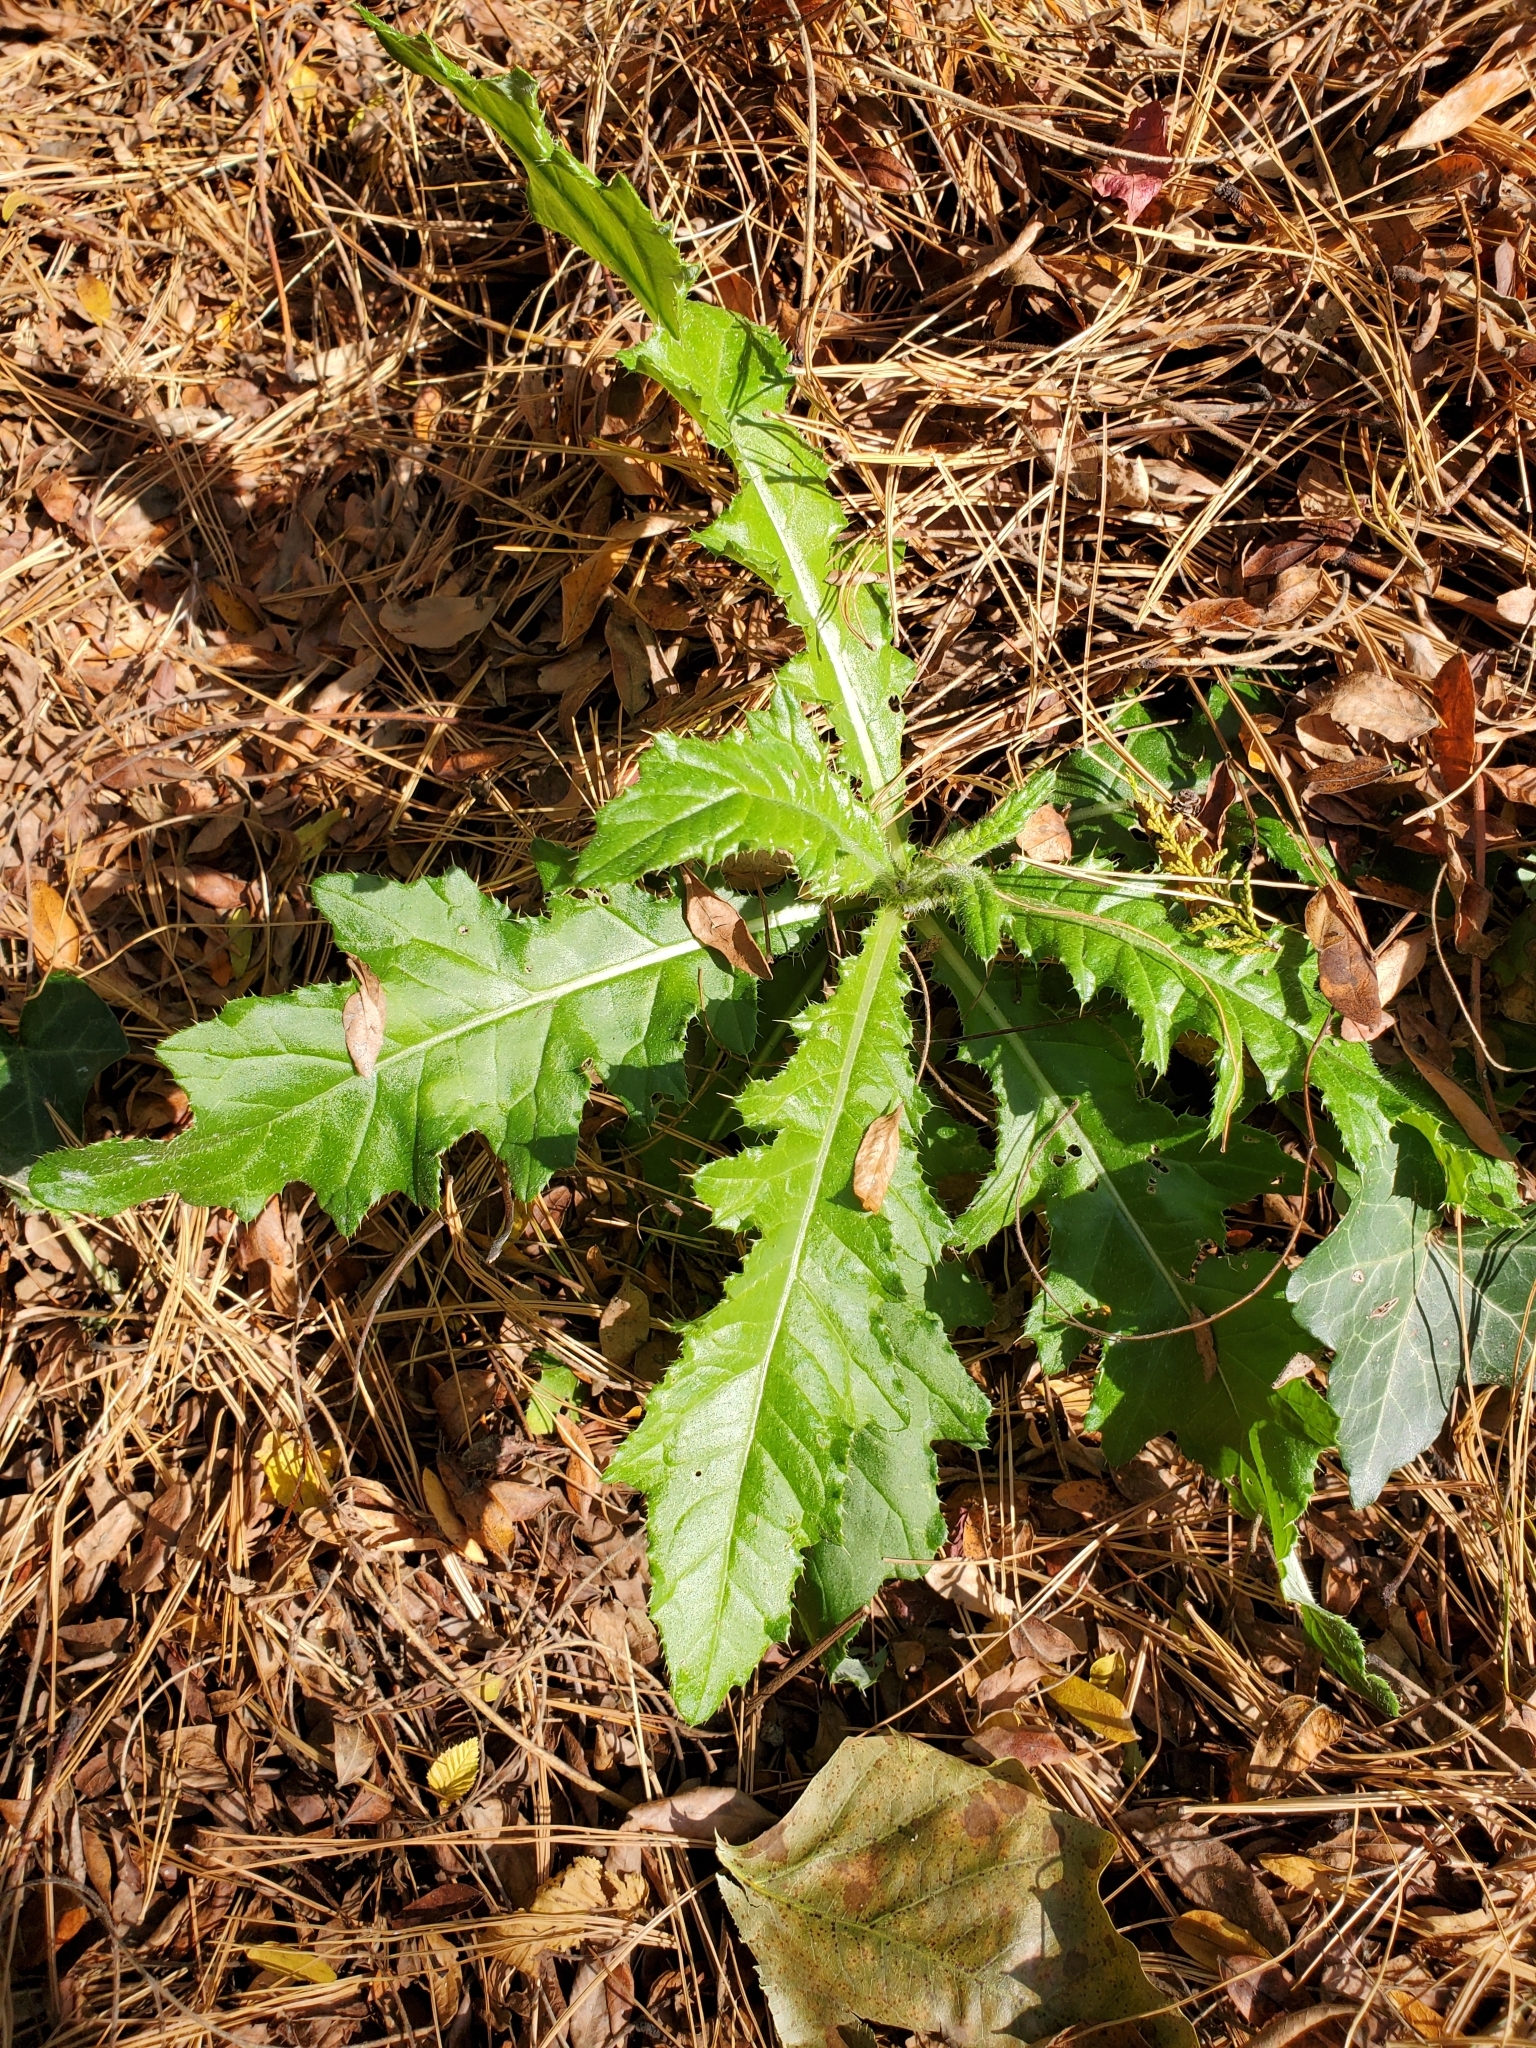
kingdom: Plantae
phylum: Tracheophyta
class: Magnoliopsida
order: Asterales
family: Asteraceae
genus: Cirsium
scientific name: Cirsium arvense
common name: Creeping thistle
